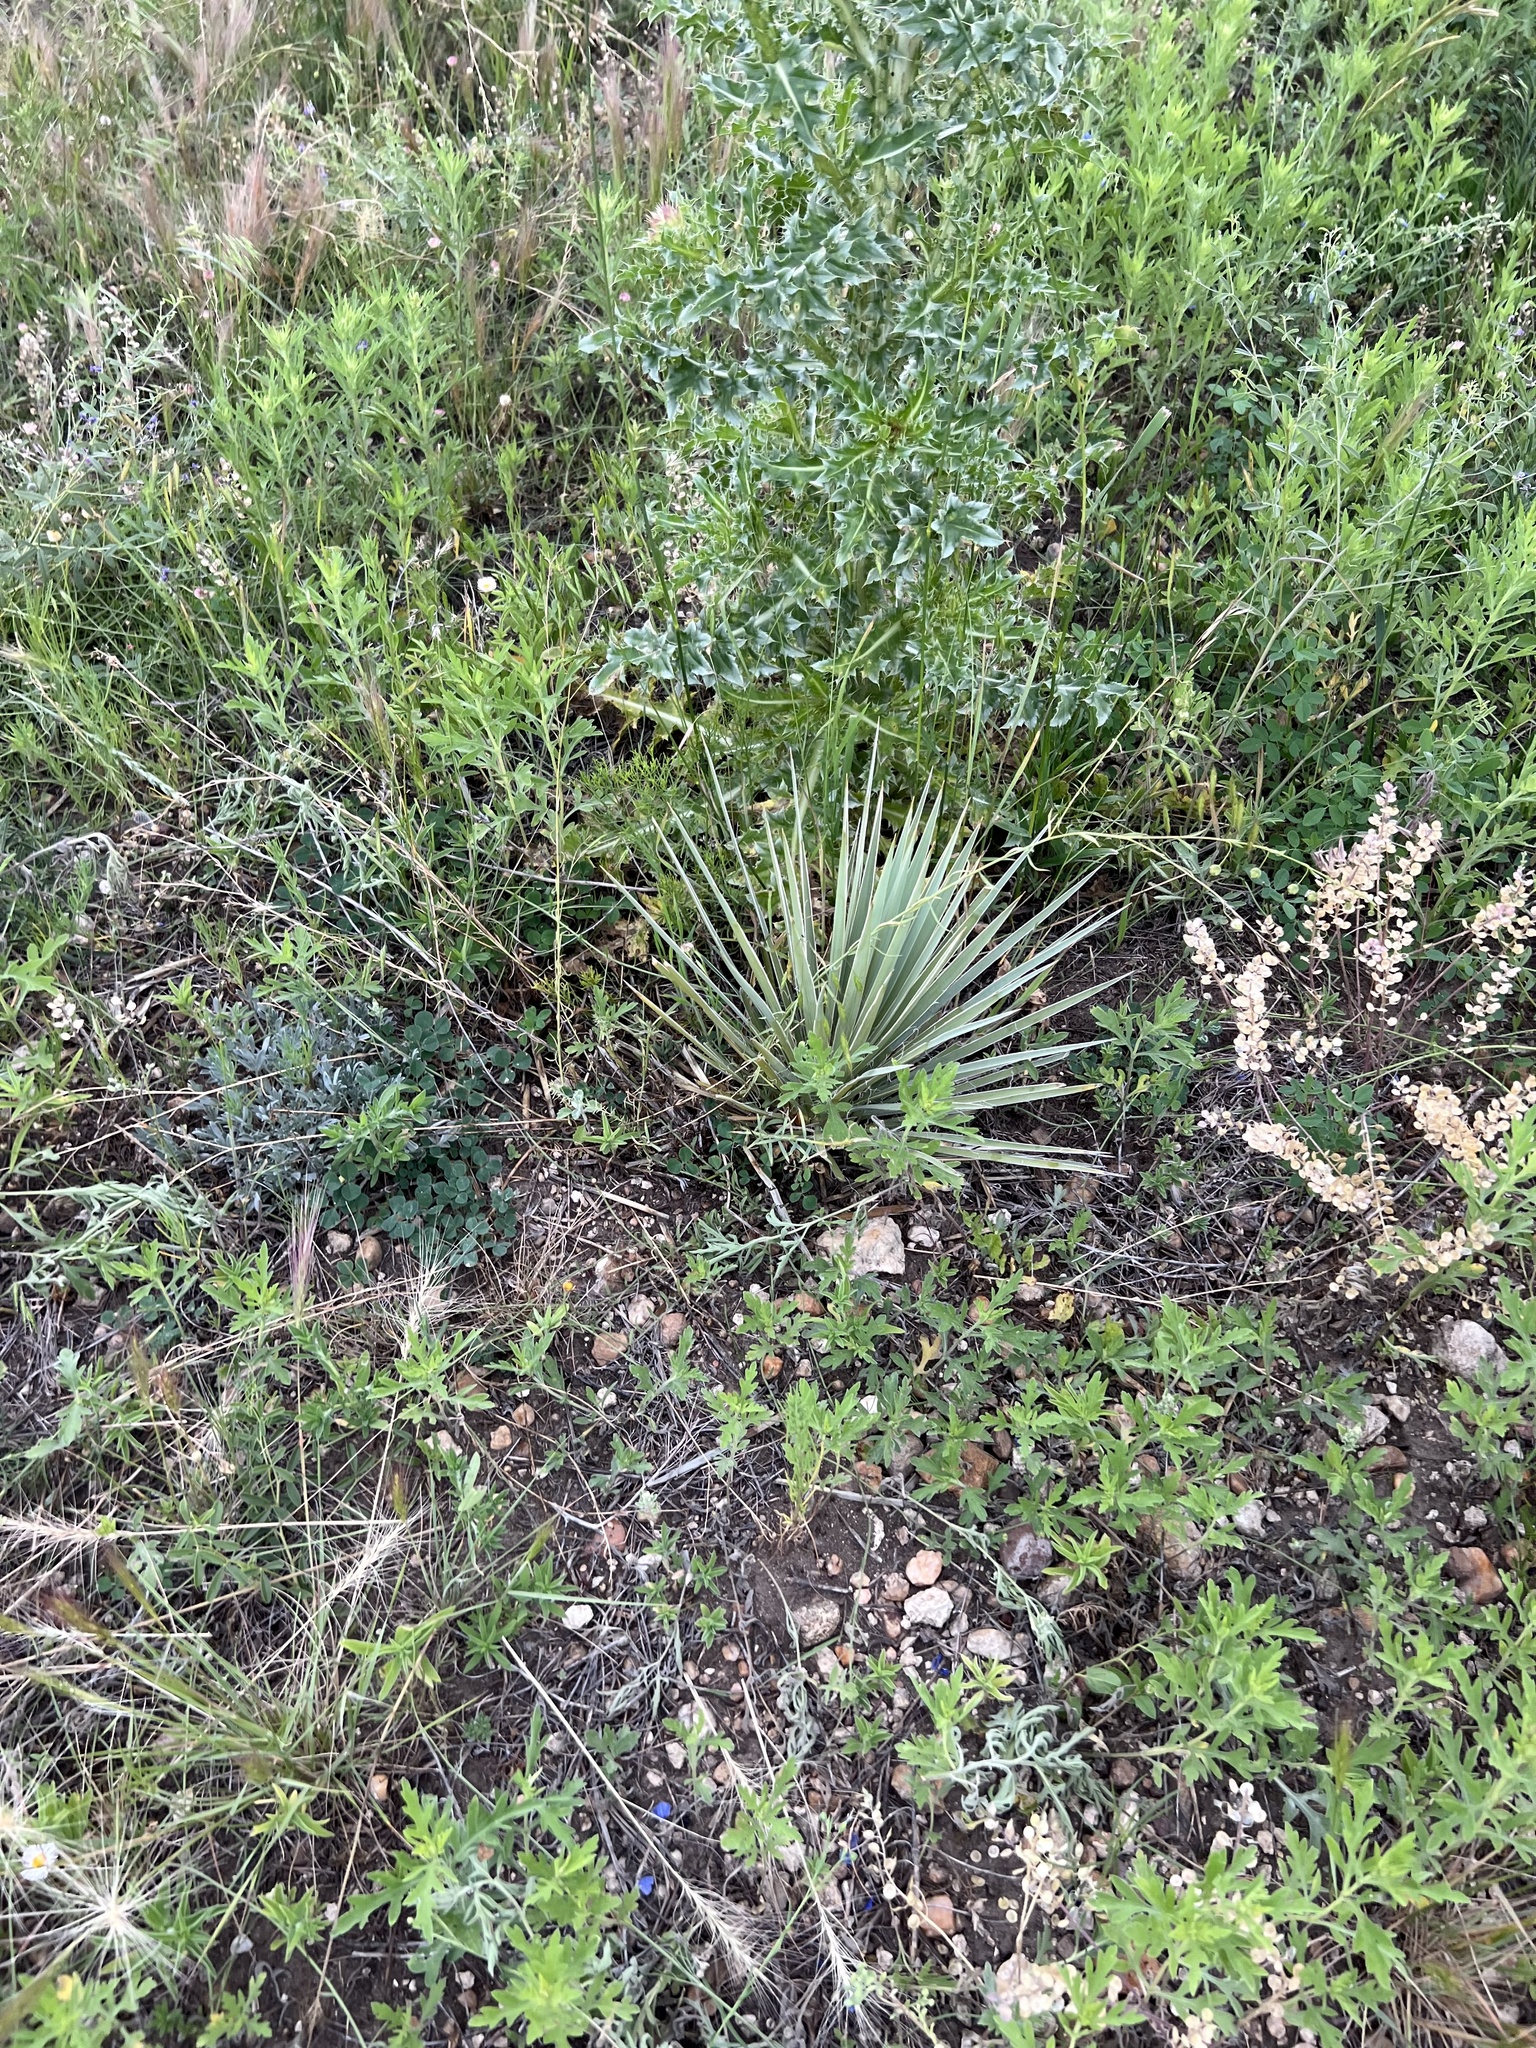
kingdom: Plantae
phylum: Tracheophyta
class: Liliopsida
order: Asparagales
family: Asparagaceae
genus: Yucca
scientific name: Yucca glauca
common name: Great plains yucca
